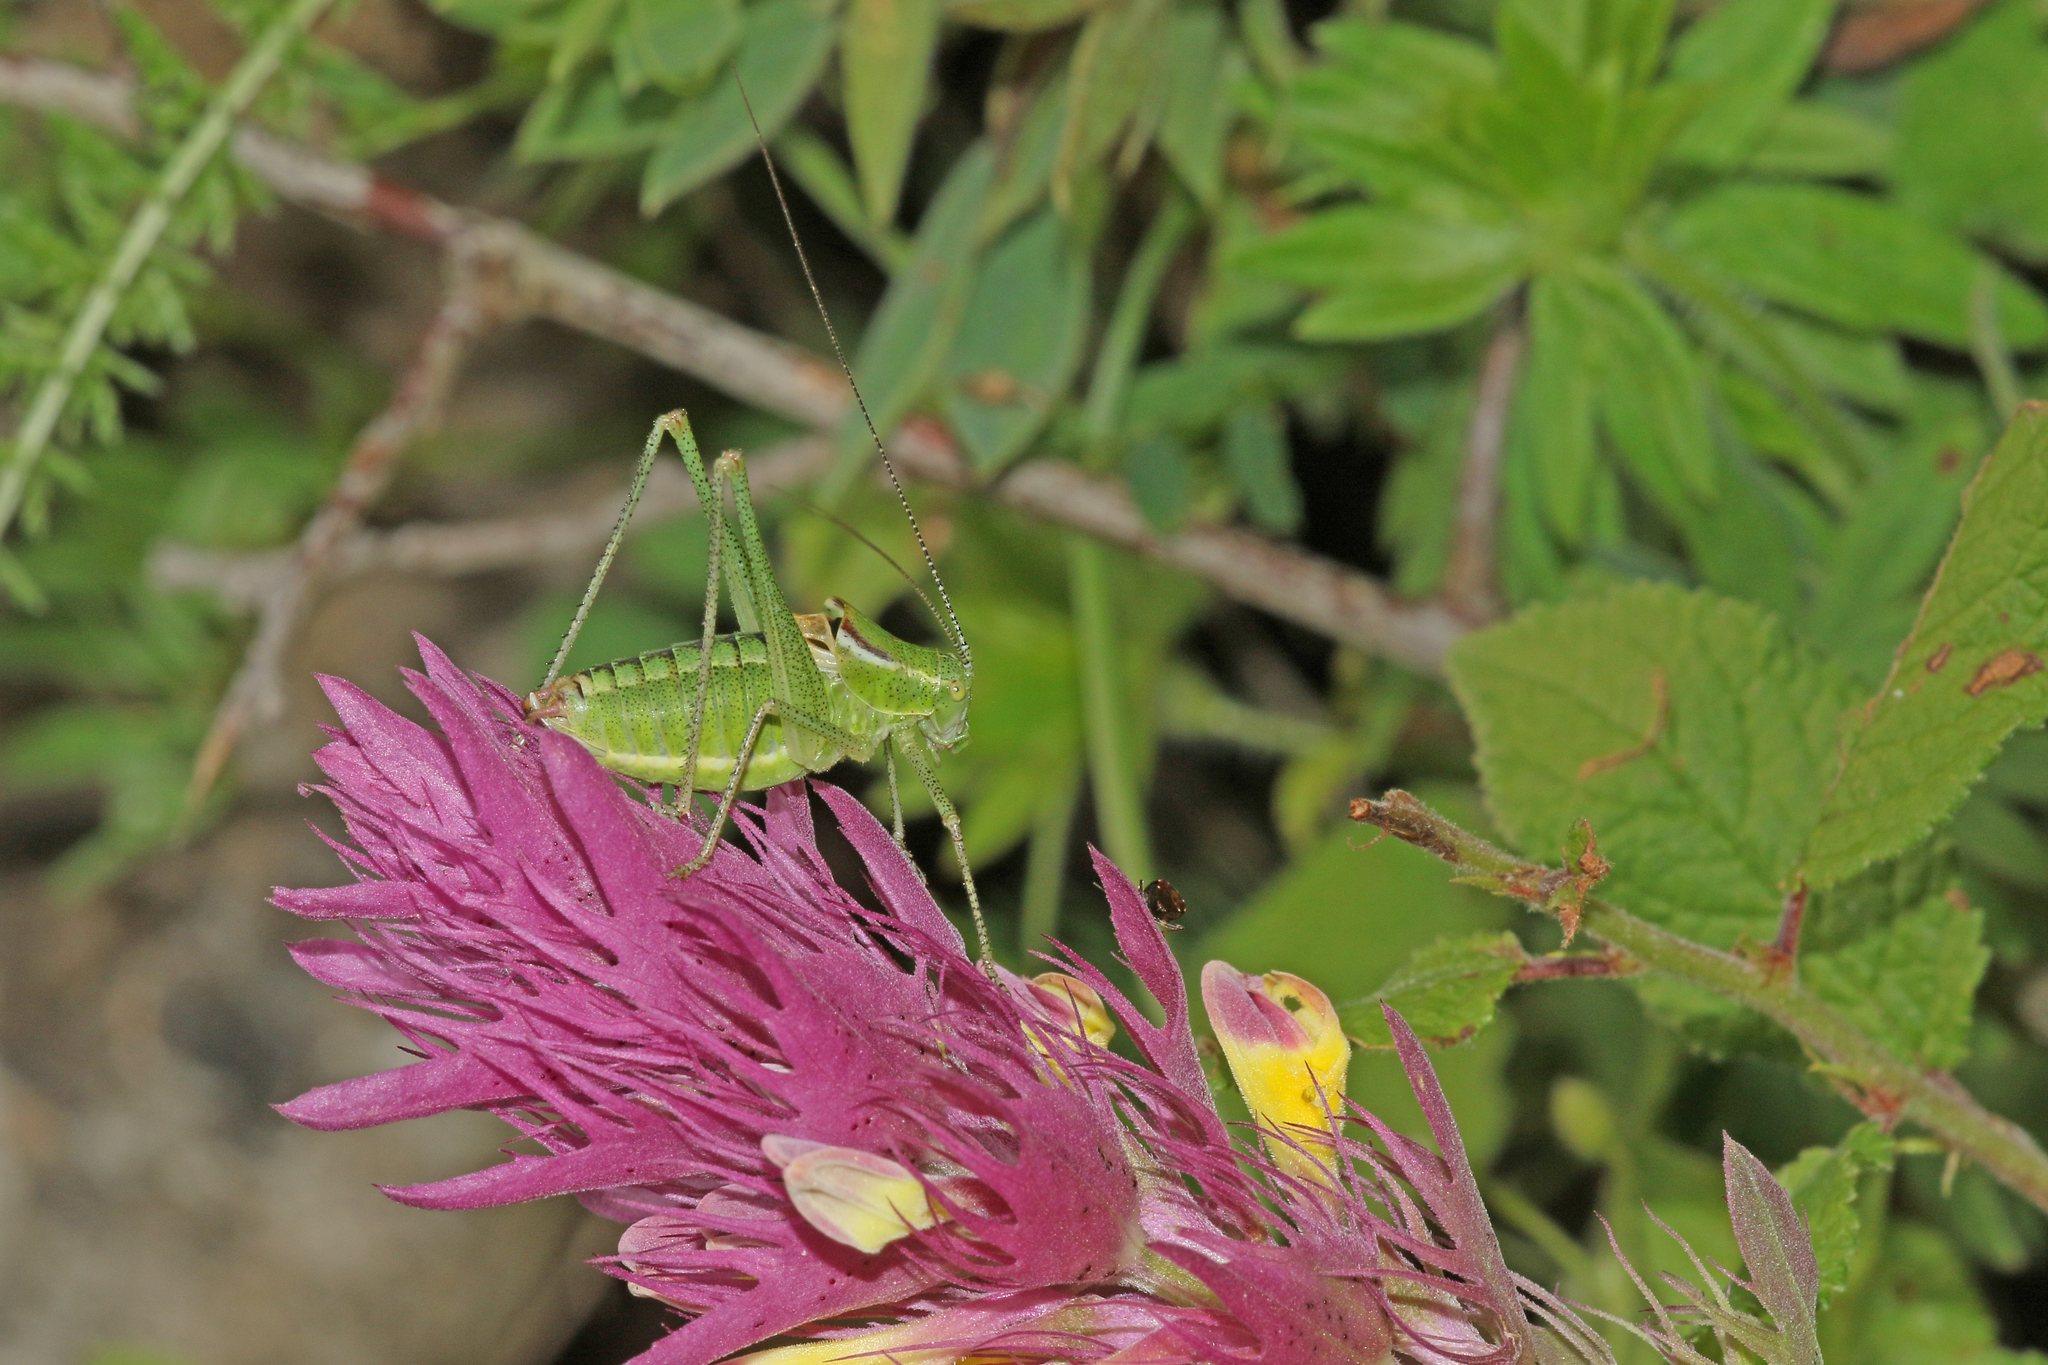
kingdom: Animalia
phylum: Arthropoda
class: Insecta
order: Orthoptera
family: Tettigoniidae
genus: Poecilimon
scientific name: Poecilimon orbelicus
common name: Orbelicos bright bush-cricket
